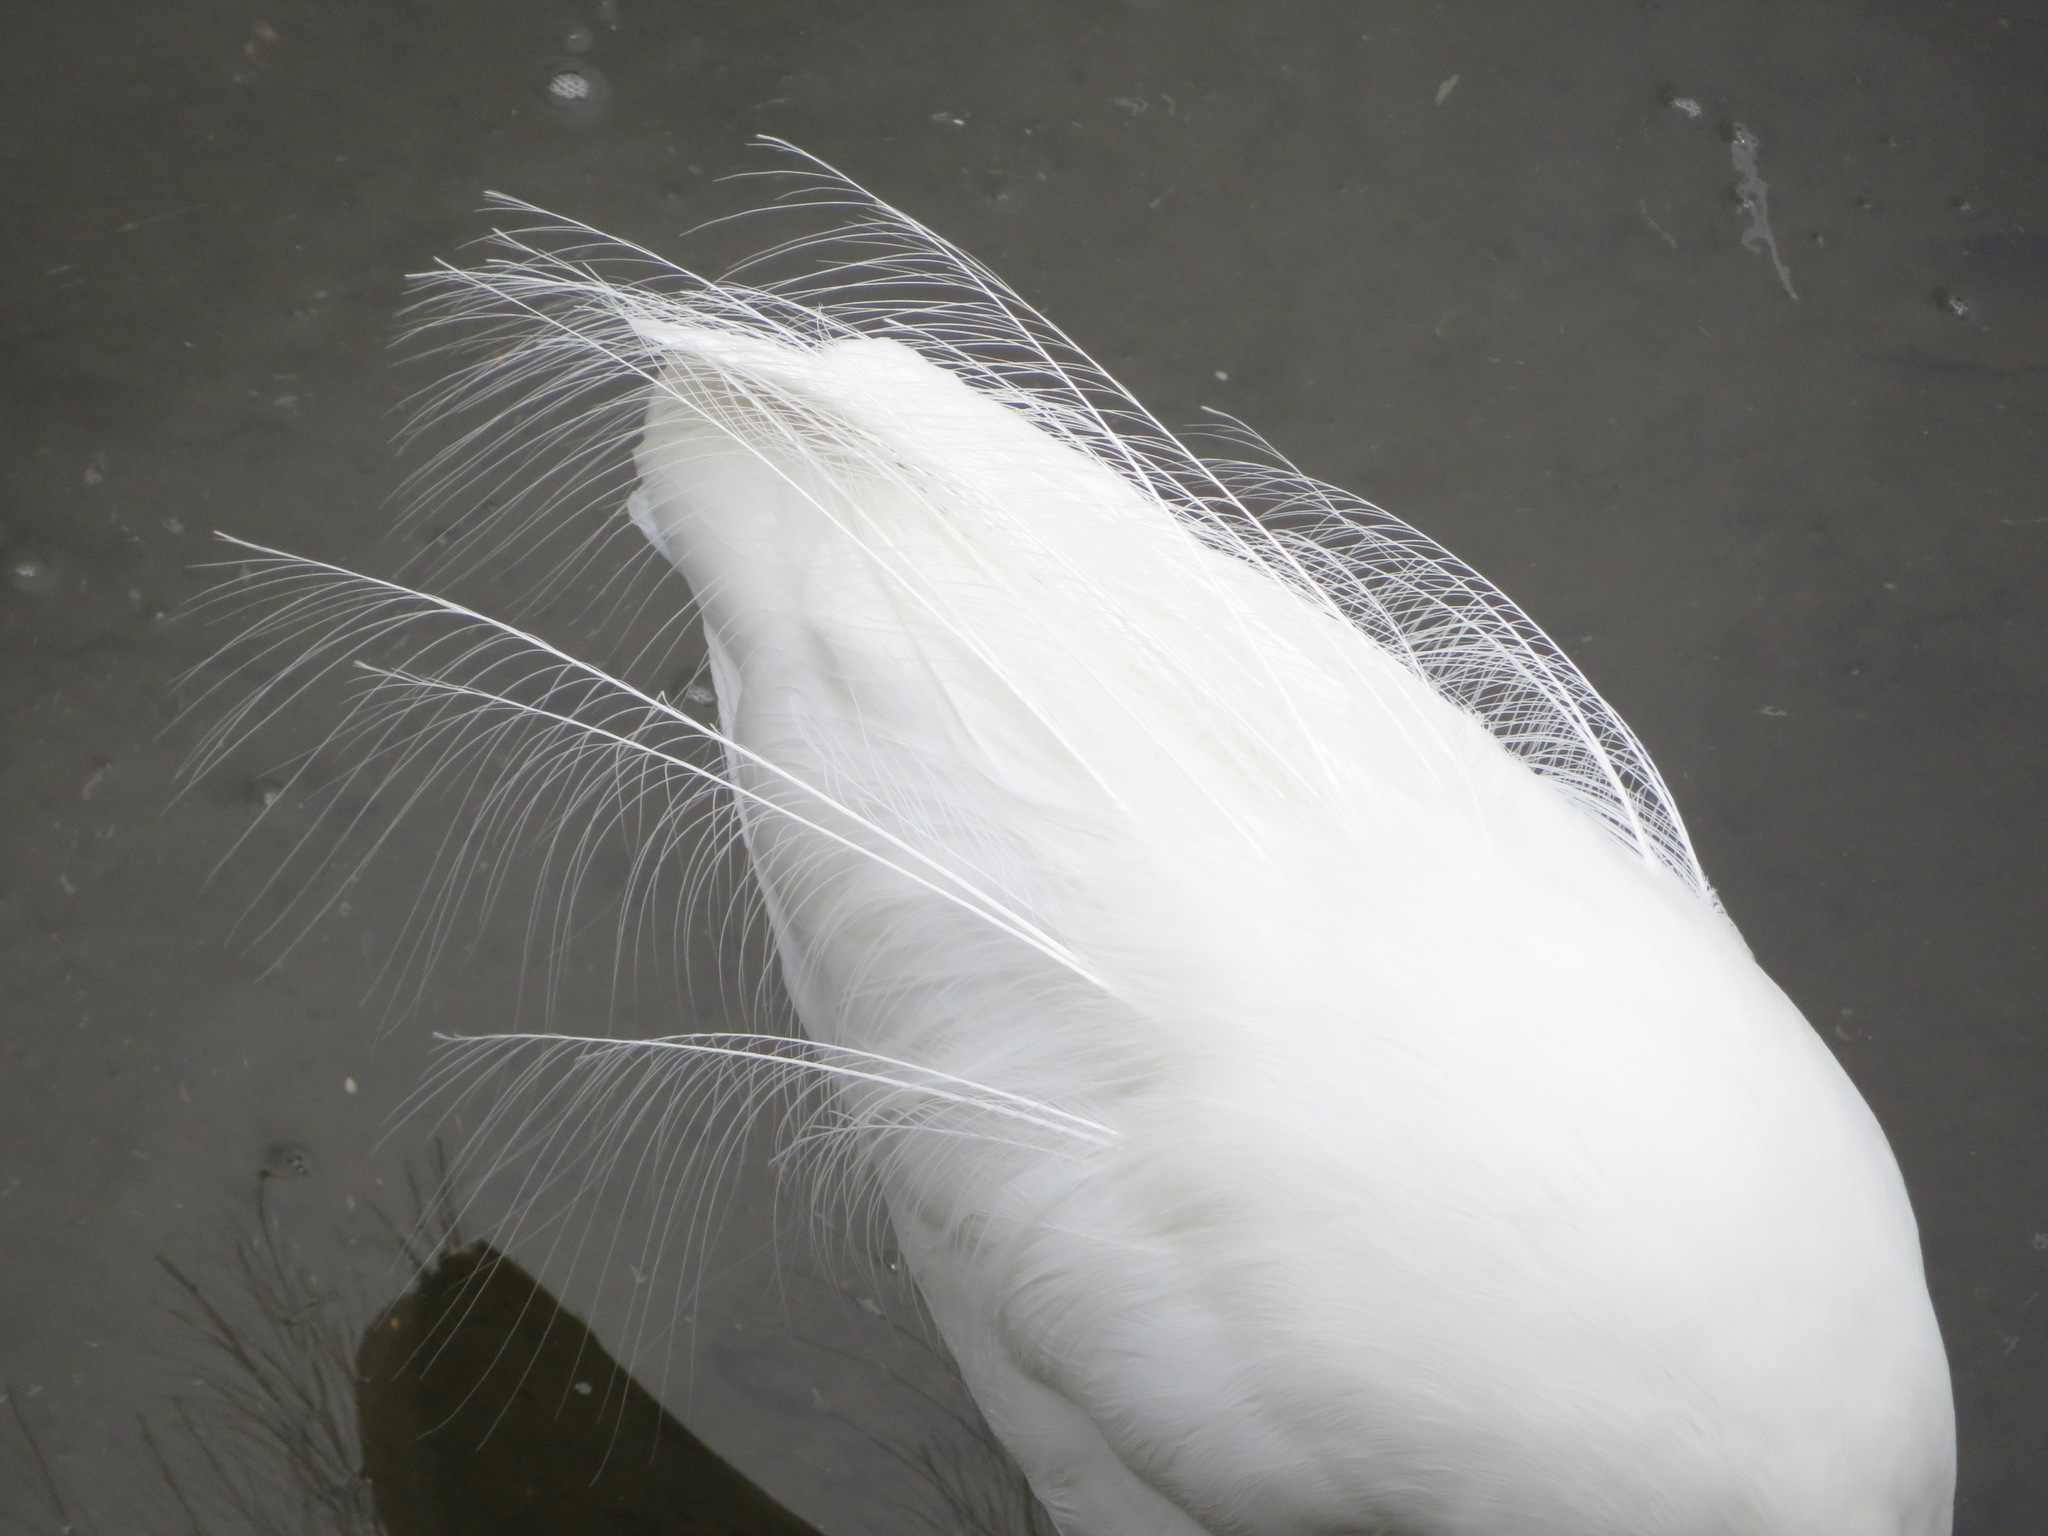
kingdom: Animalia
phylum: Chordata
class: Aves
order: Pelecaniformes
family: Ardeidae
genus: Ardea
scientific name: Ardea alba
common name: Great egret
